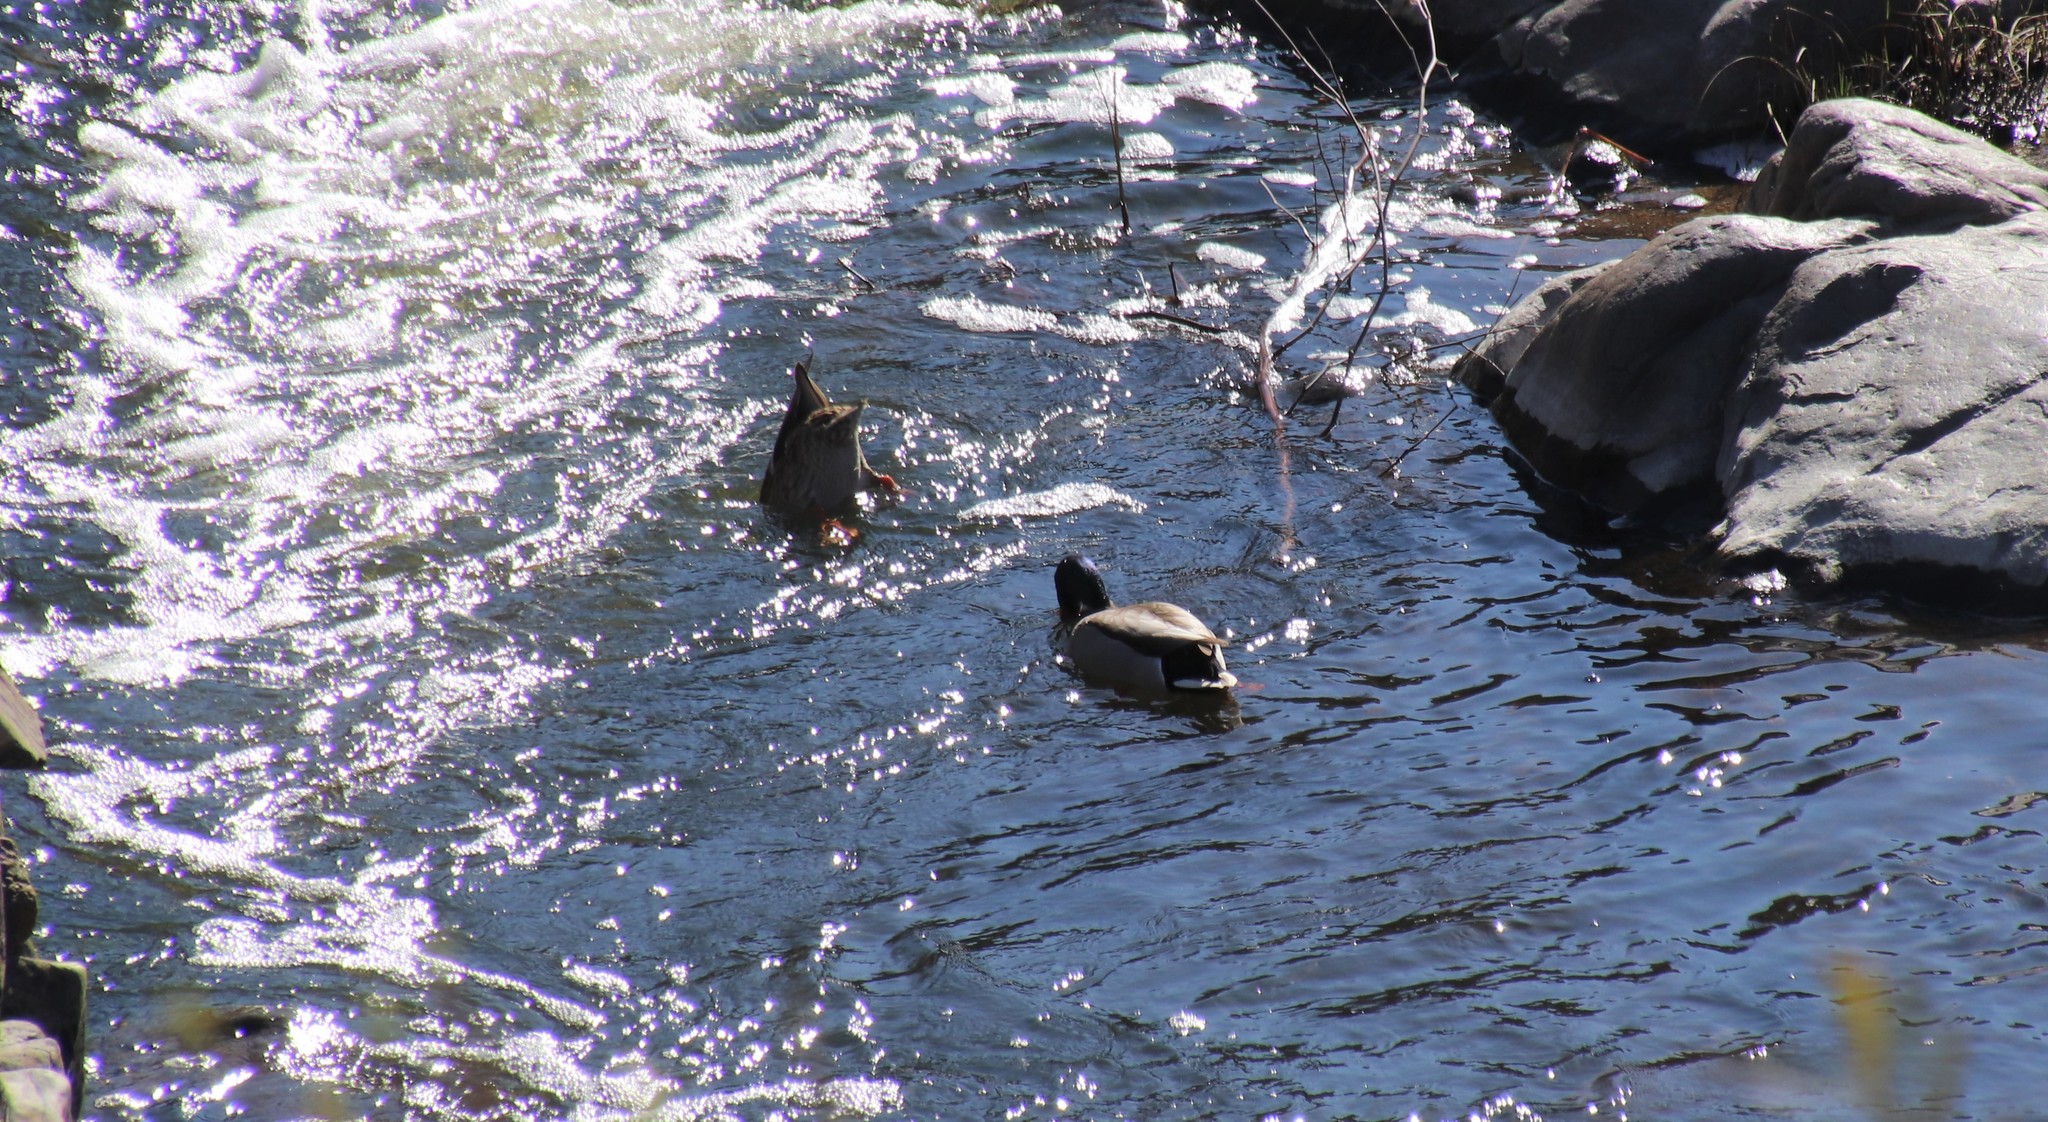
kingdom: Animalia
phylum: Chordata
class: Aves
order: Anseriformes
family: Anatidae
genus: Anas
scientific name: Anas platyrhynchos
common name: Mallard
